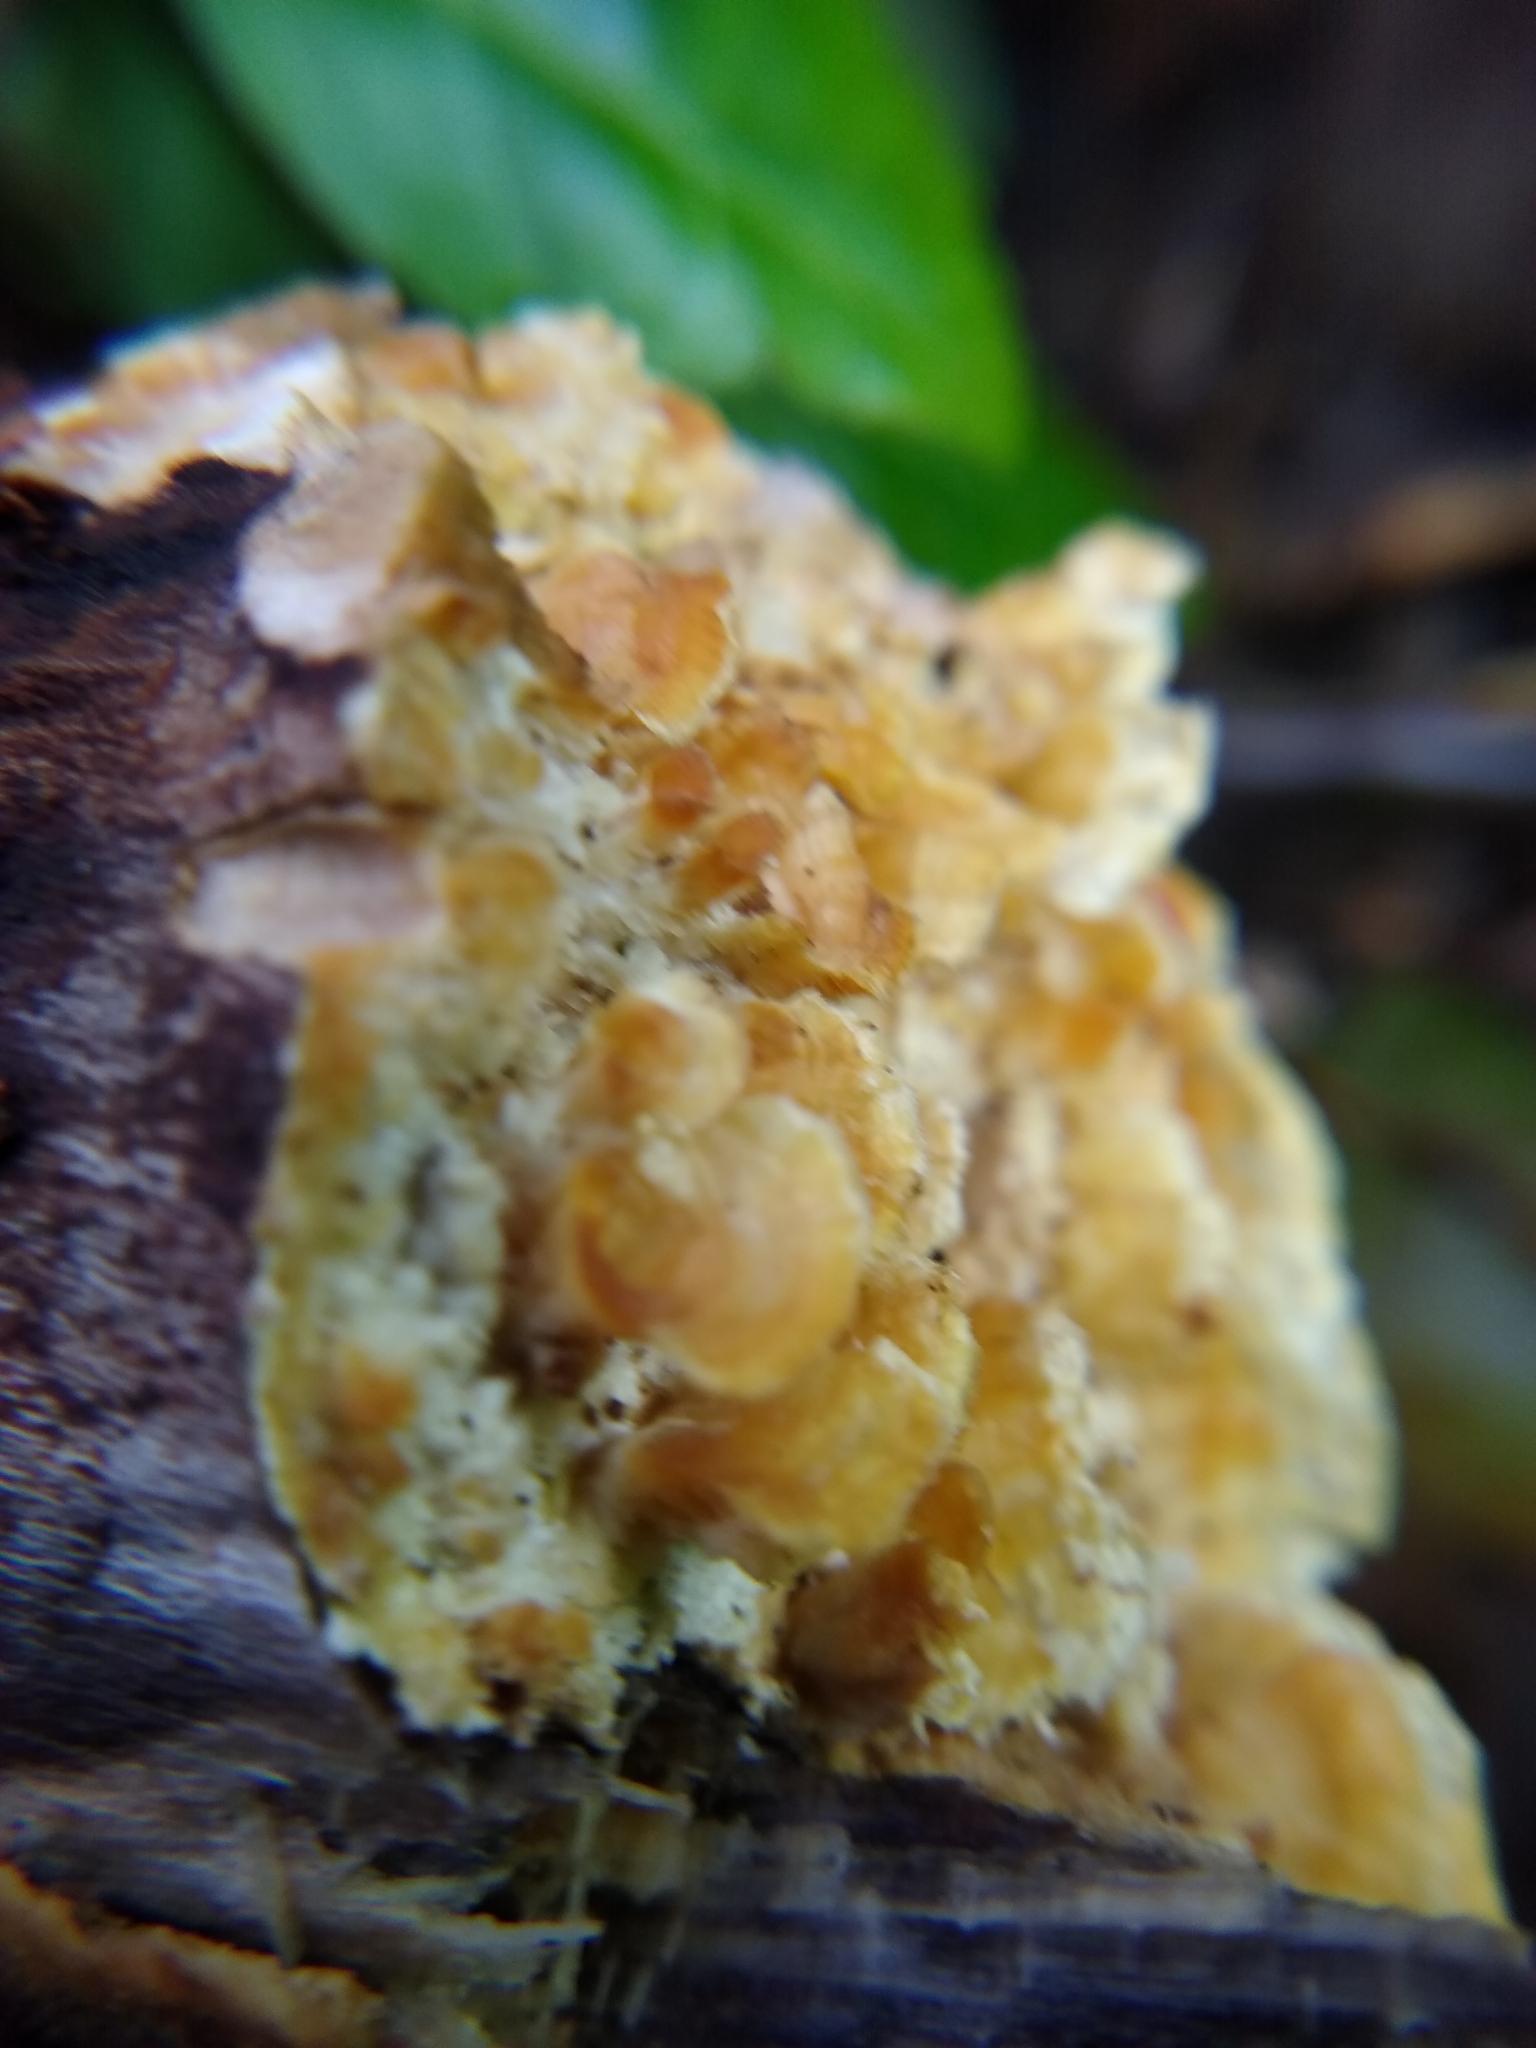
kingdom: Fungi
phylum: Basidiomycota
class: Agaricomycetes
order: Polyporales
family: Polyporaceae
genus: Trametes
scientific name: Trametes ochracea
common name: Ochre bracket
